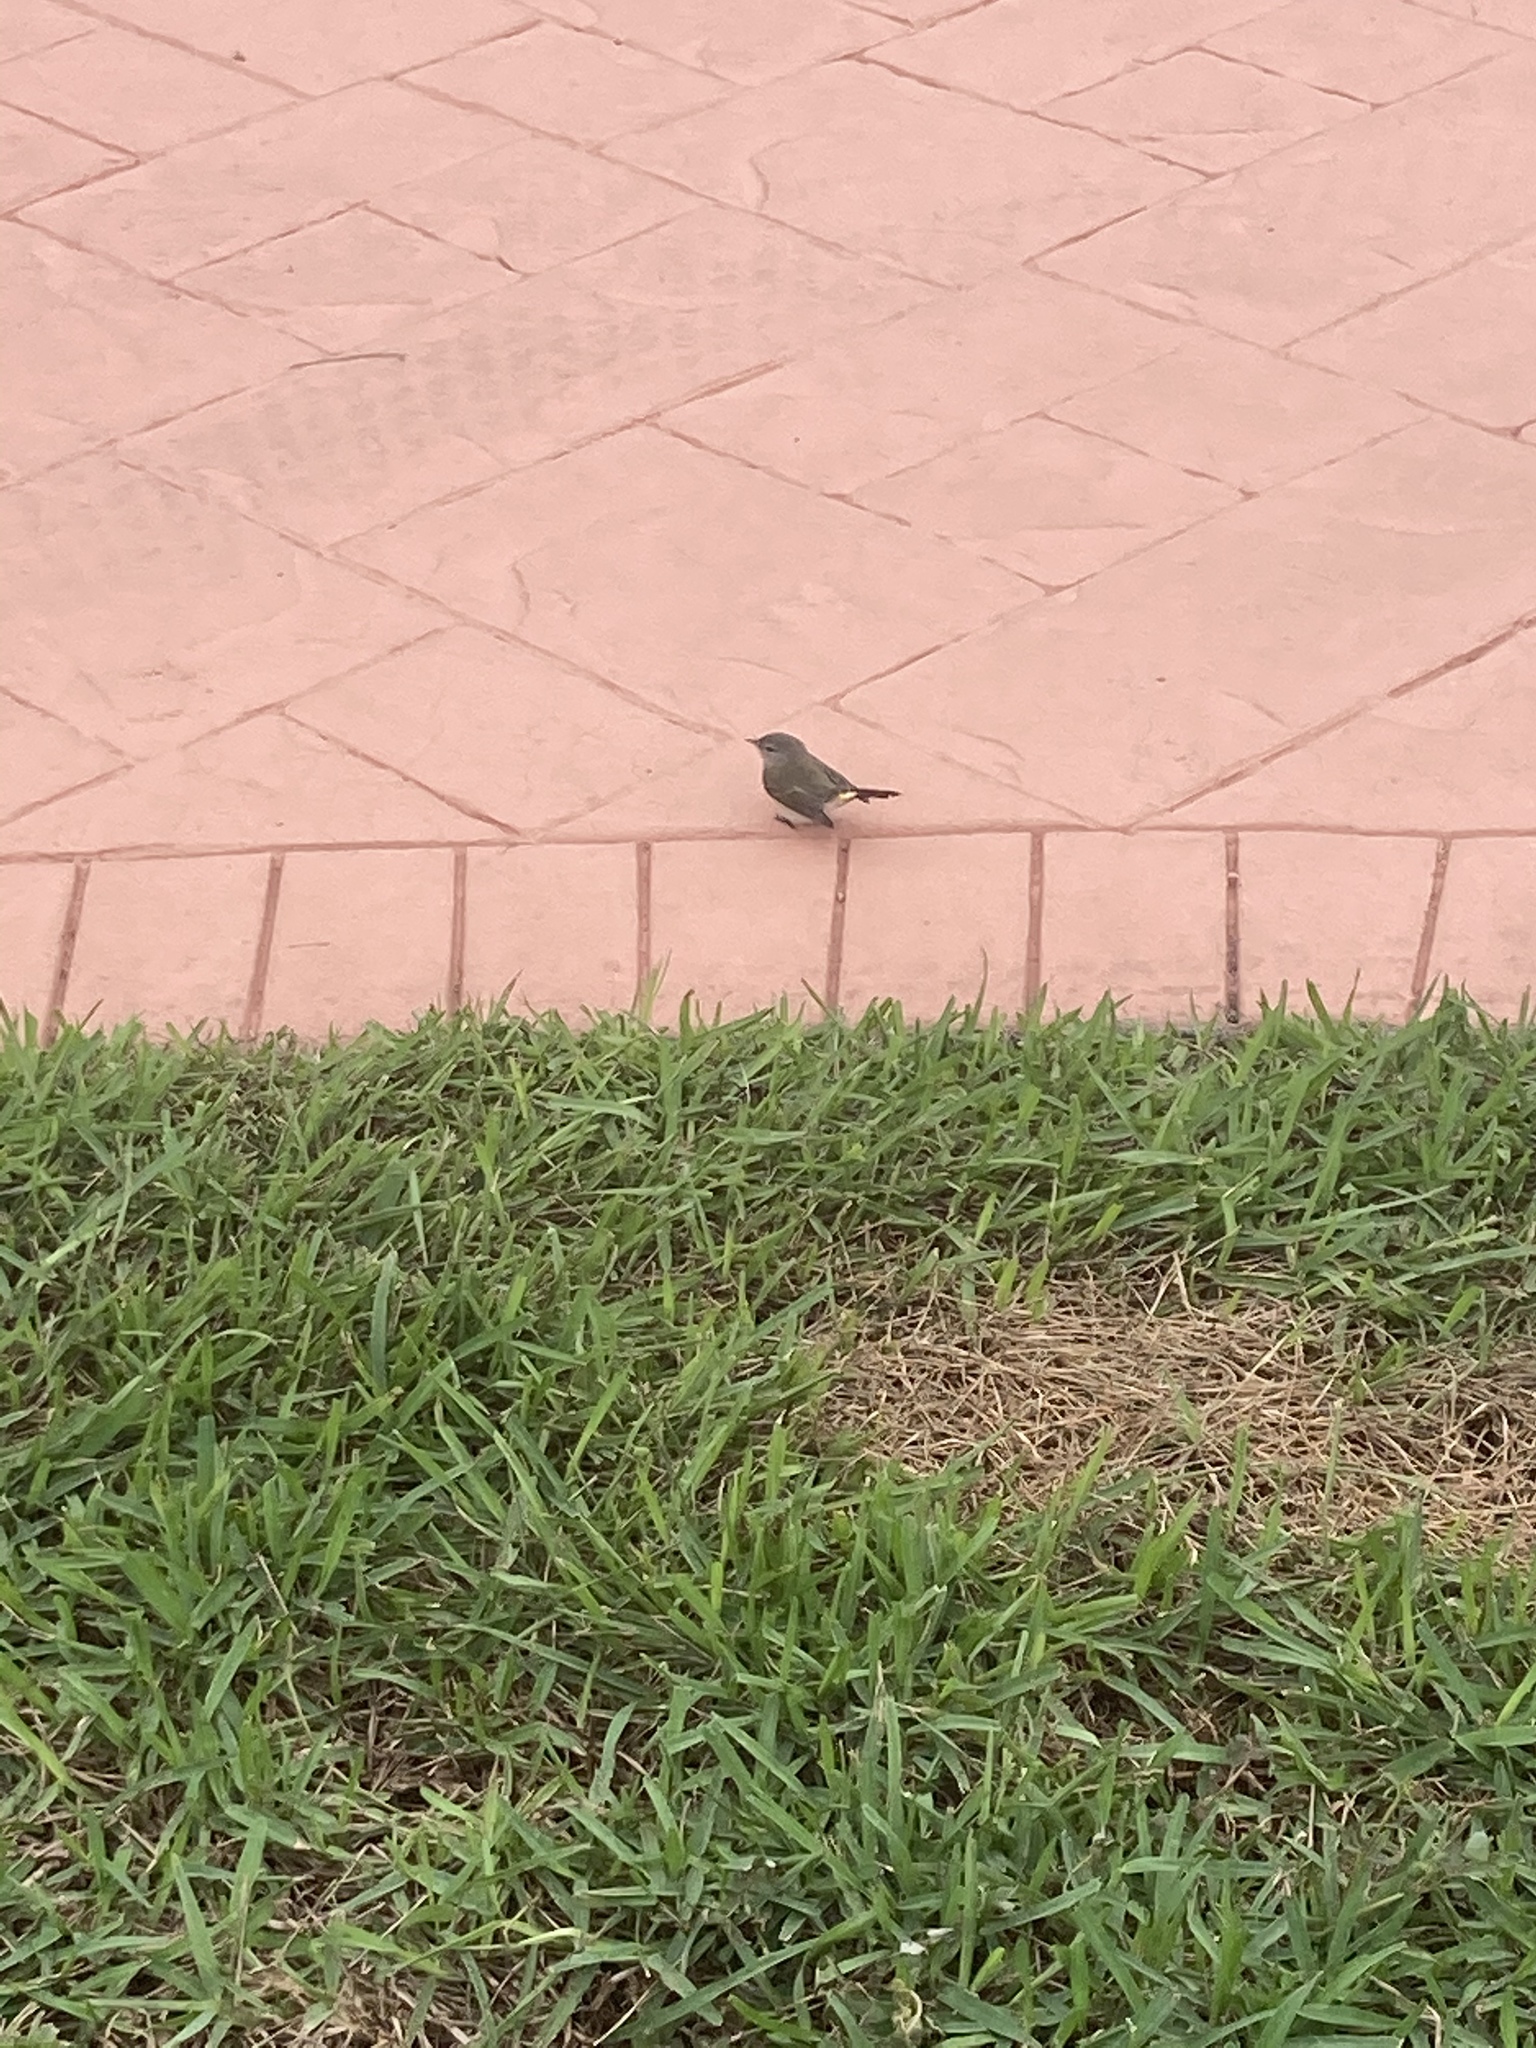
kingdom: Animalia
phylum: Chordata
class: Aves
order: Passeriformes
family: Parulidae
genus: Setophaga
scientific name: Setophaga ruticilla
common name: American redstart
